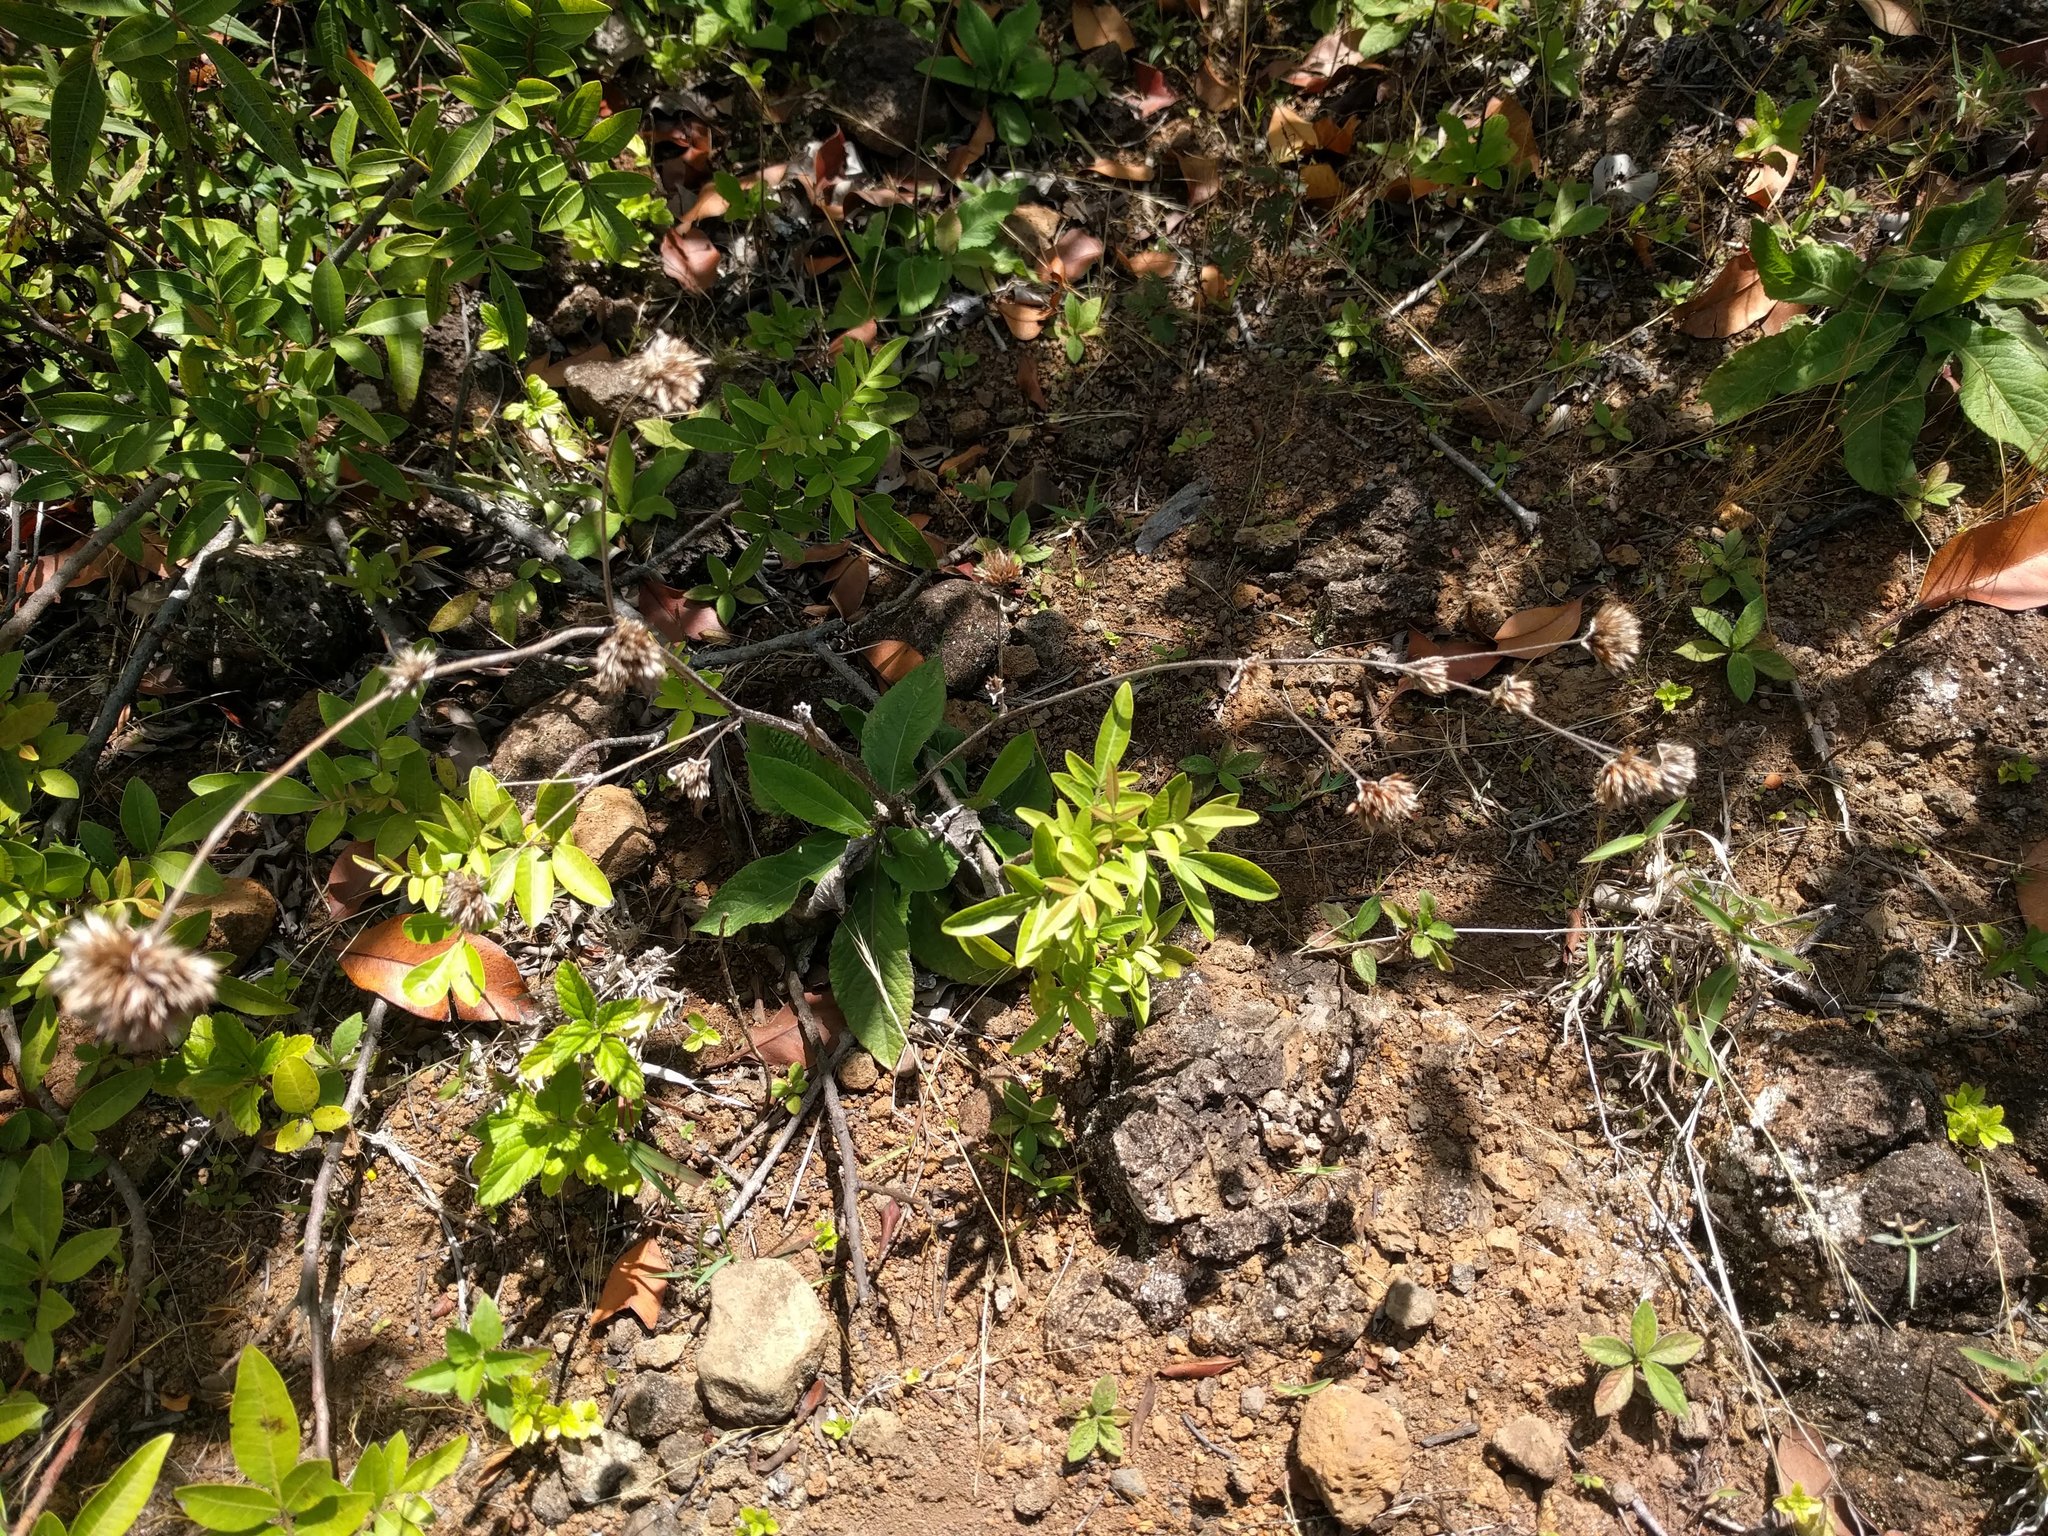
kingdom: Plantae
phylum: Tracheophyta
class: Magnoliopsida
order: Asterales
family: Asteraceae
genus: Elephantopus
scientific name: Elephantopus mollis
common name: Soft elephantsfoot
